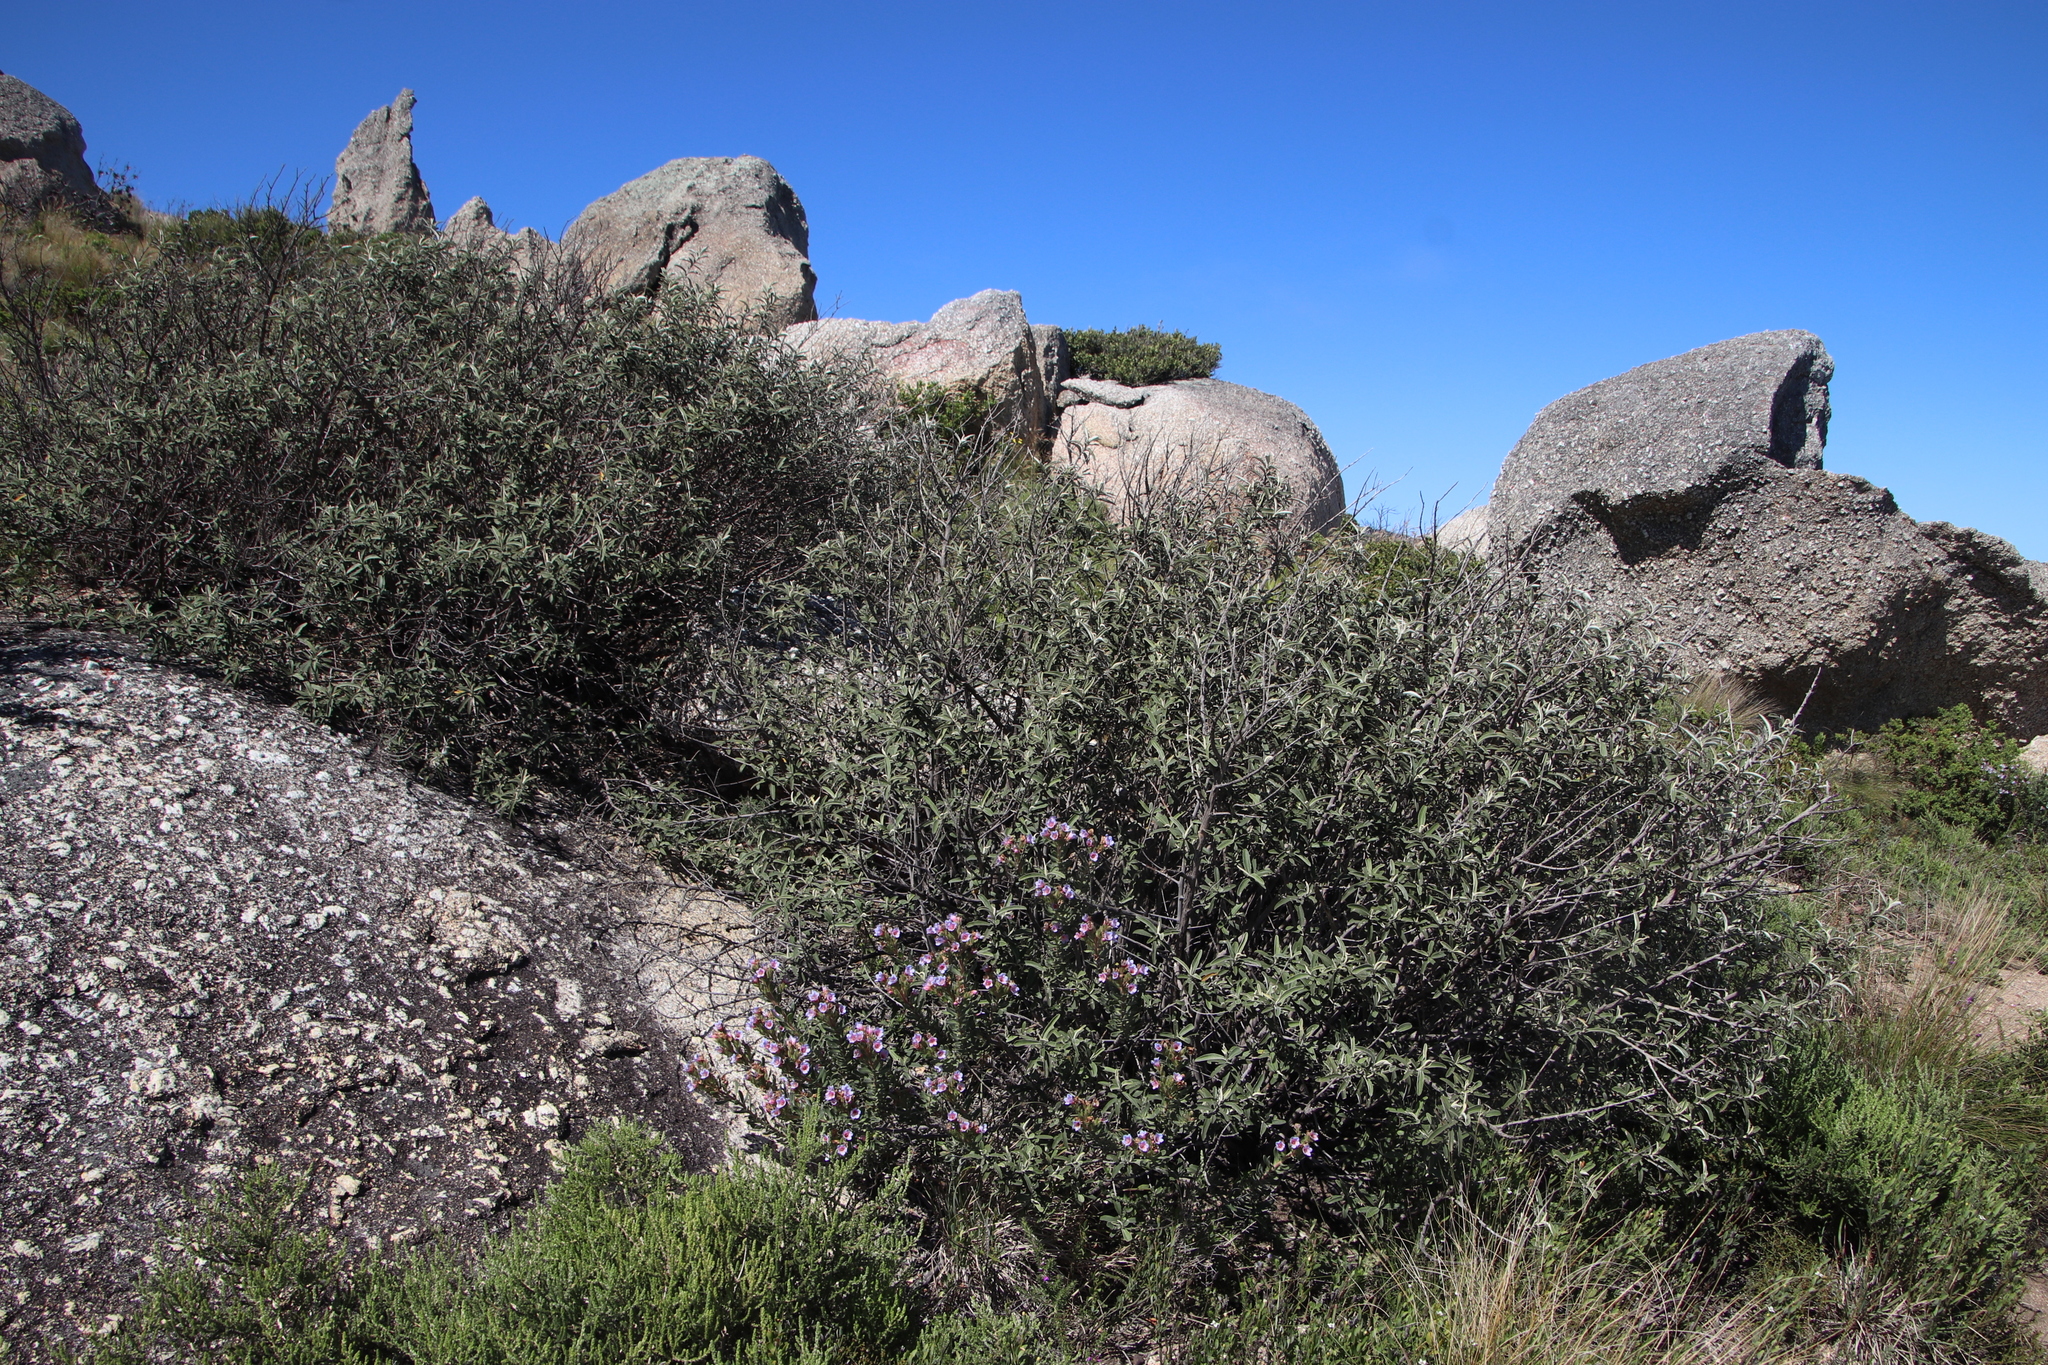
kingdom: Plantae
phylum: Tracheophyta
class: Magnoliopsida
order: Asterales
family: Asteraceae
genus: Tarchonanthus
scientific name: Tarchonanthus littoralis
